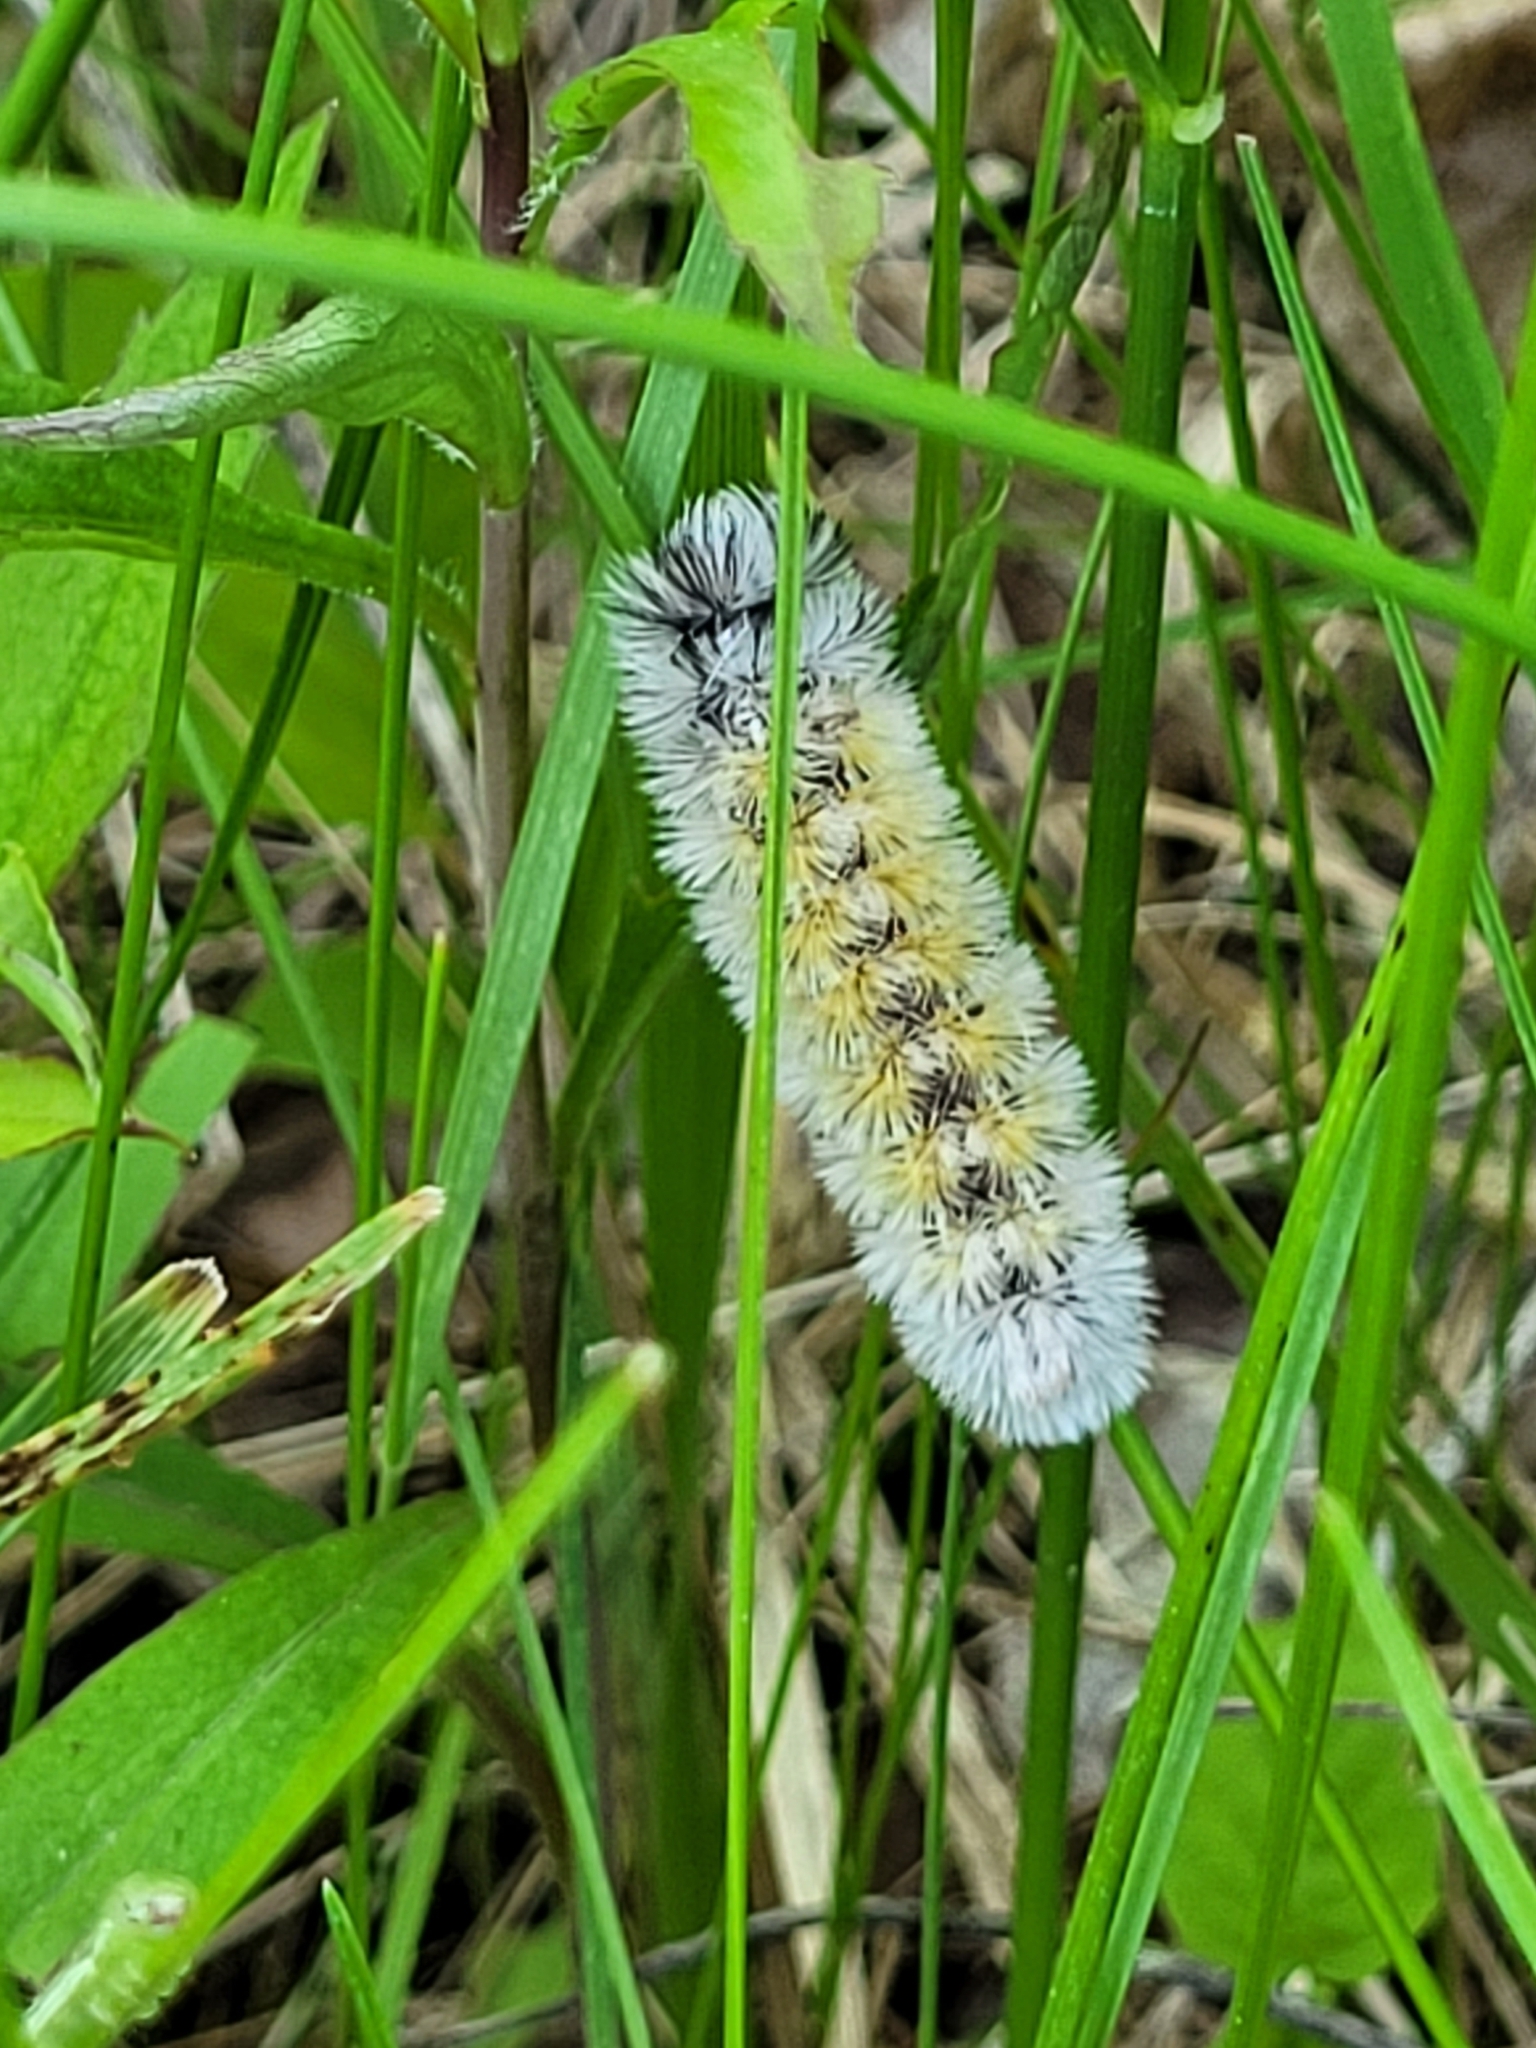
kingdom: Animalia
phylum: Arthropoda
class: Insecta
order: Lepidoptera
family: Erebidae
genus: Ctenucha
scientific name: Ctenucha virginica
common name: Virginia ctenucha moth
